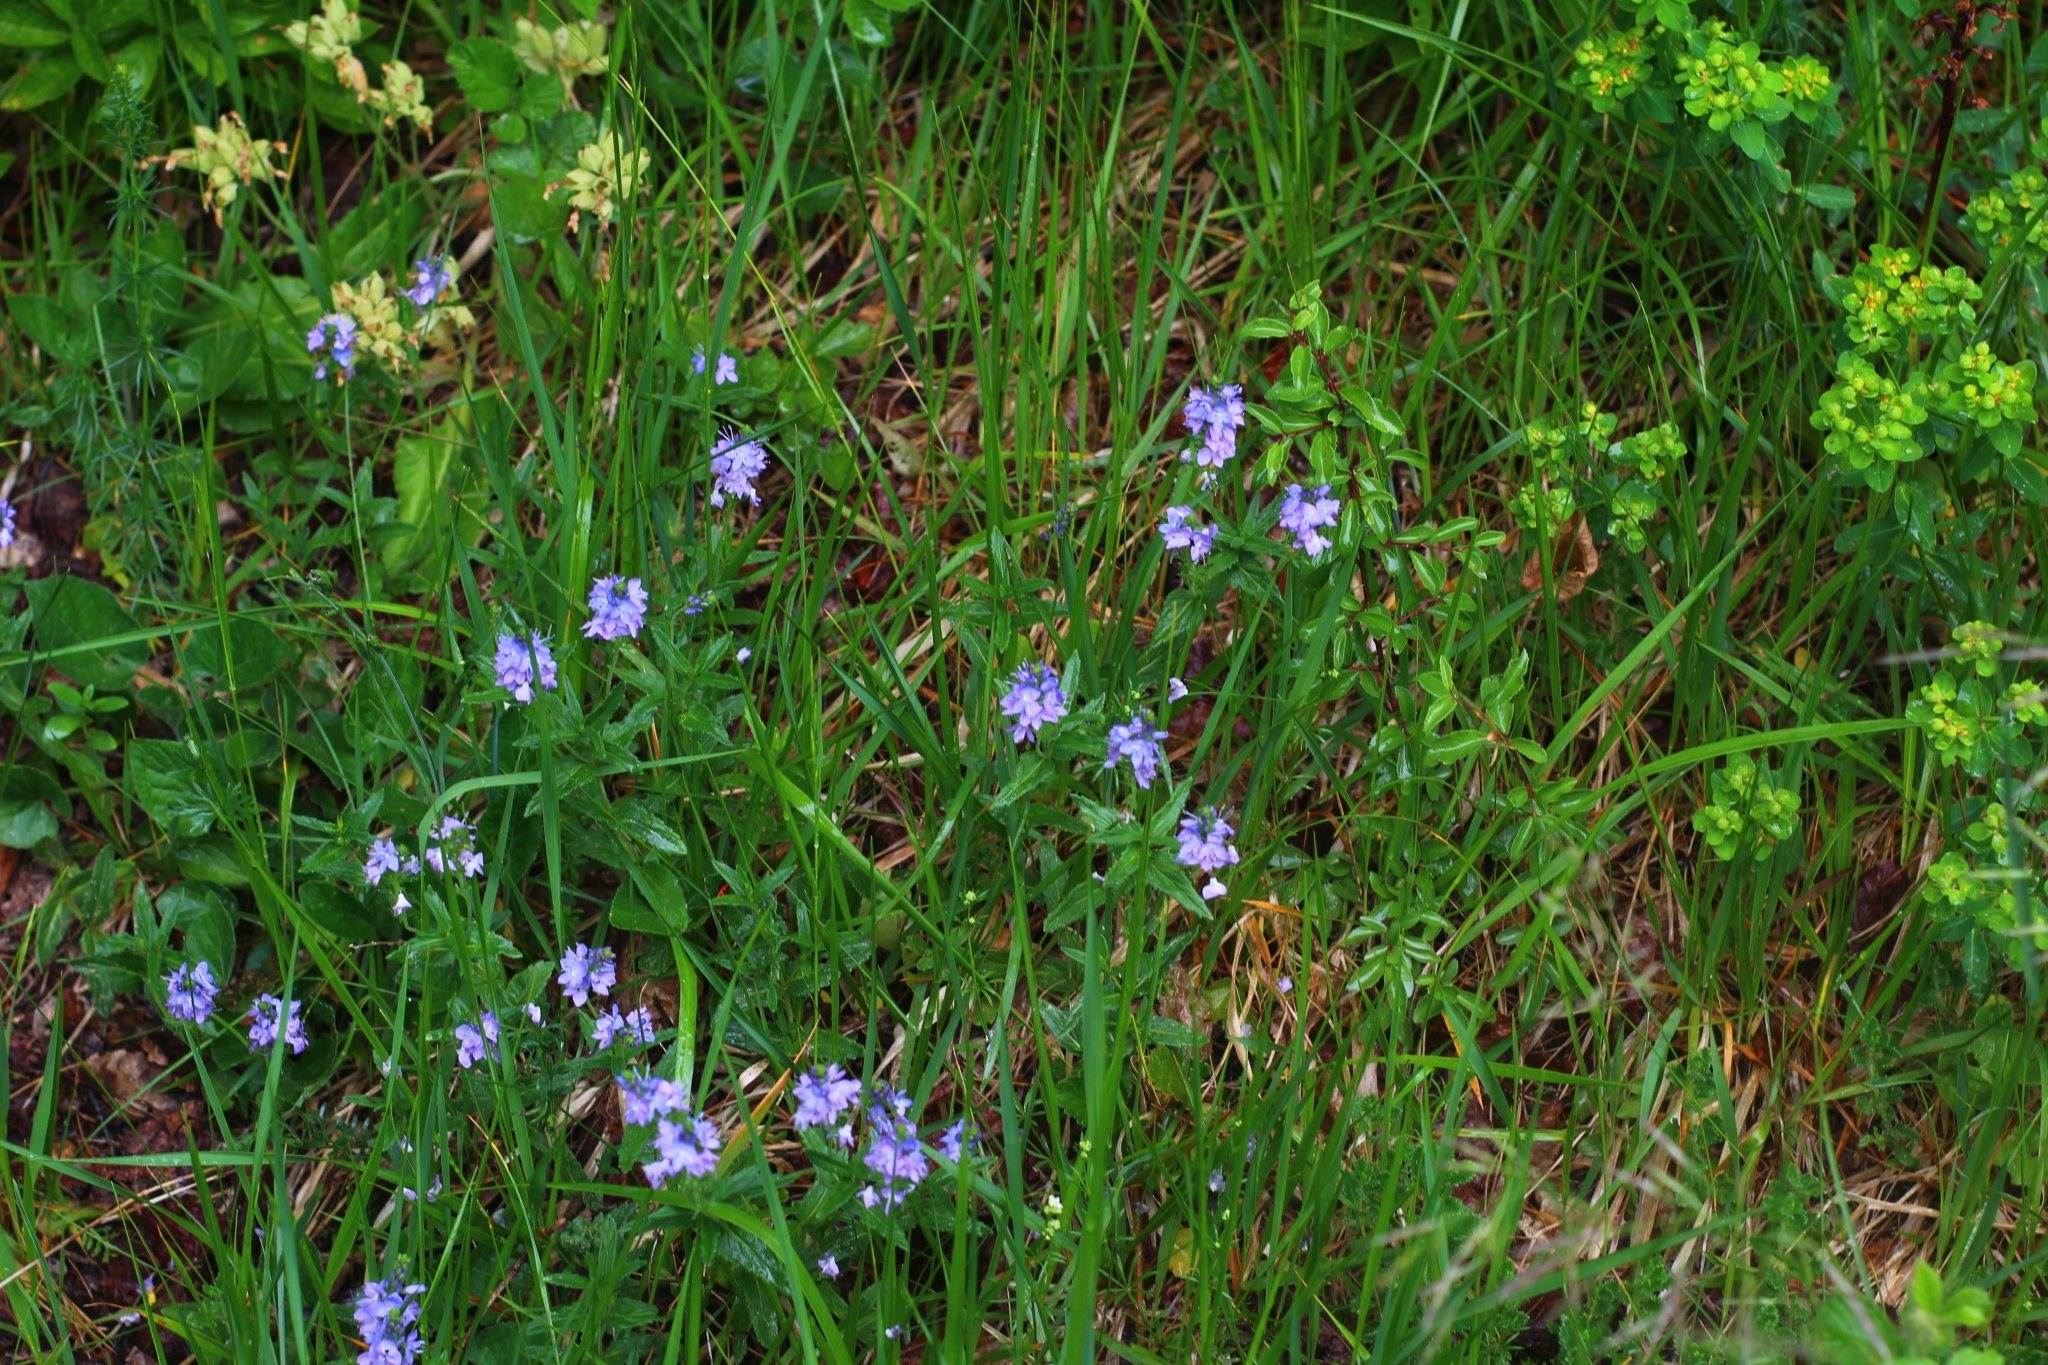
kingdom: Plantae
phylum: Tracheophyta
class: Magnoliopsida
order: Lamiales
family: Plantaginaceae
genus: Veronica
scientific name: Veronica teucrium
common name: Large speedwell
